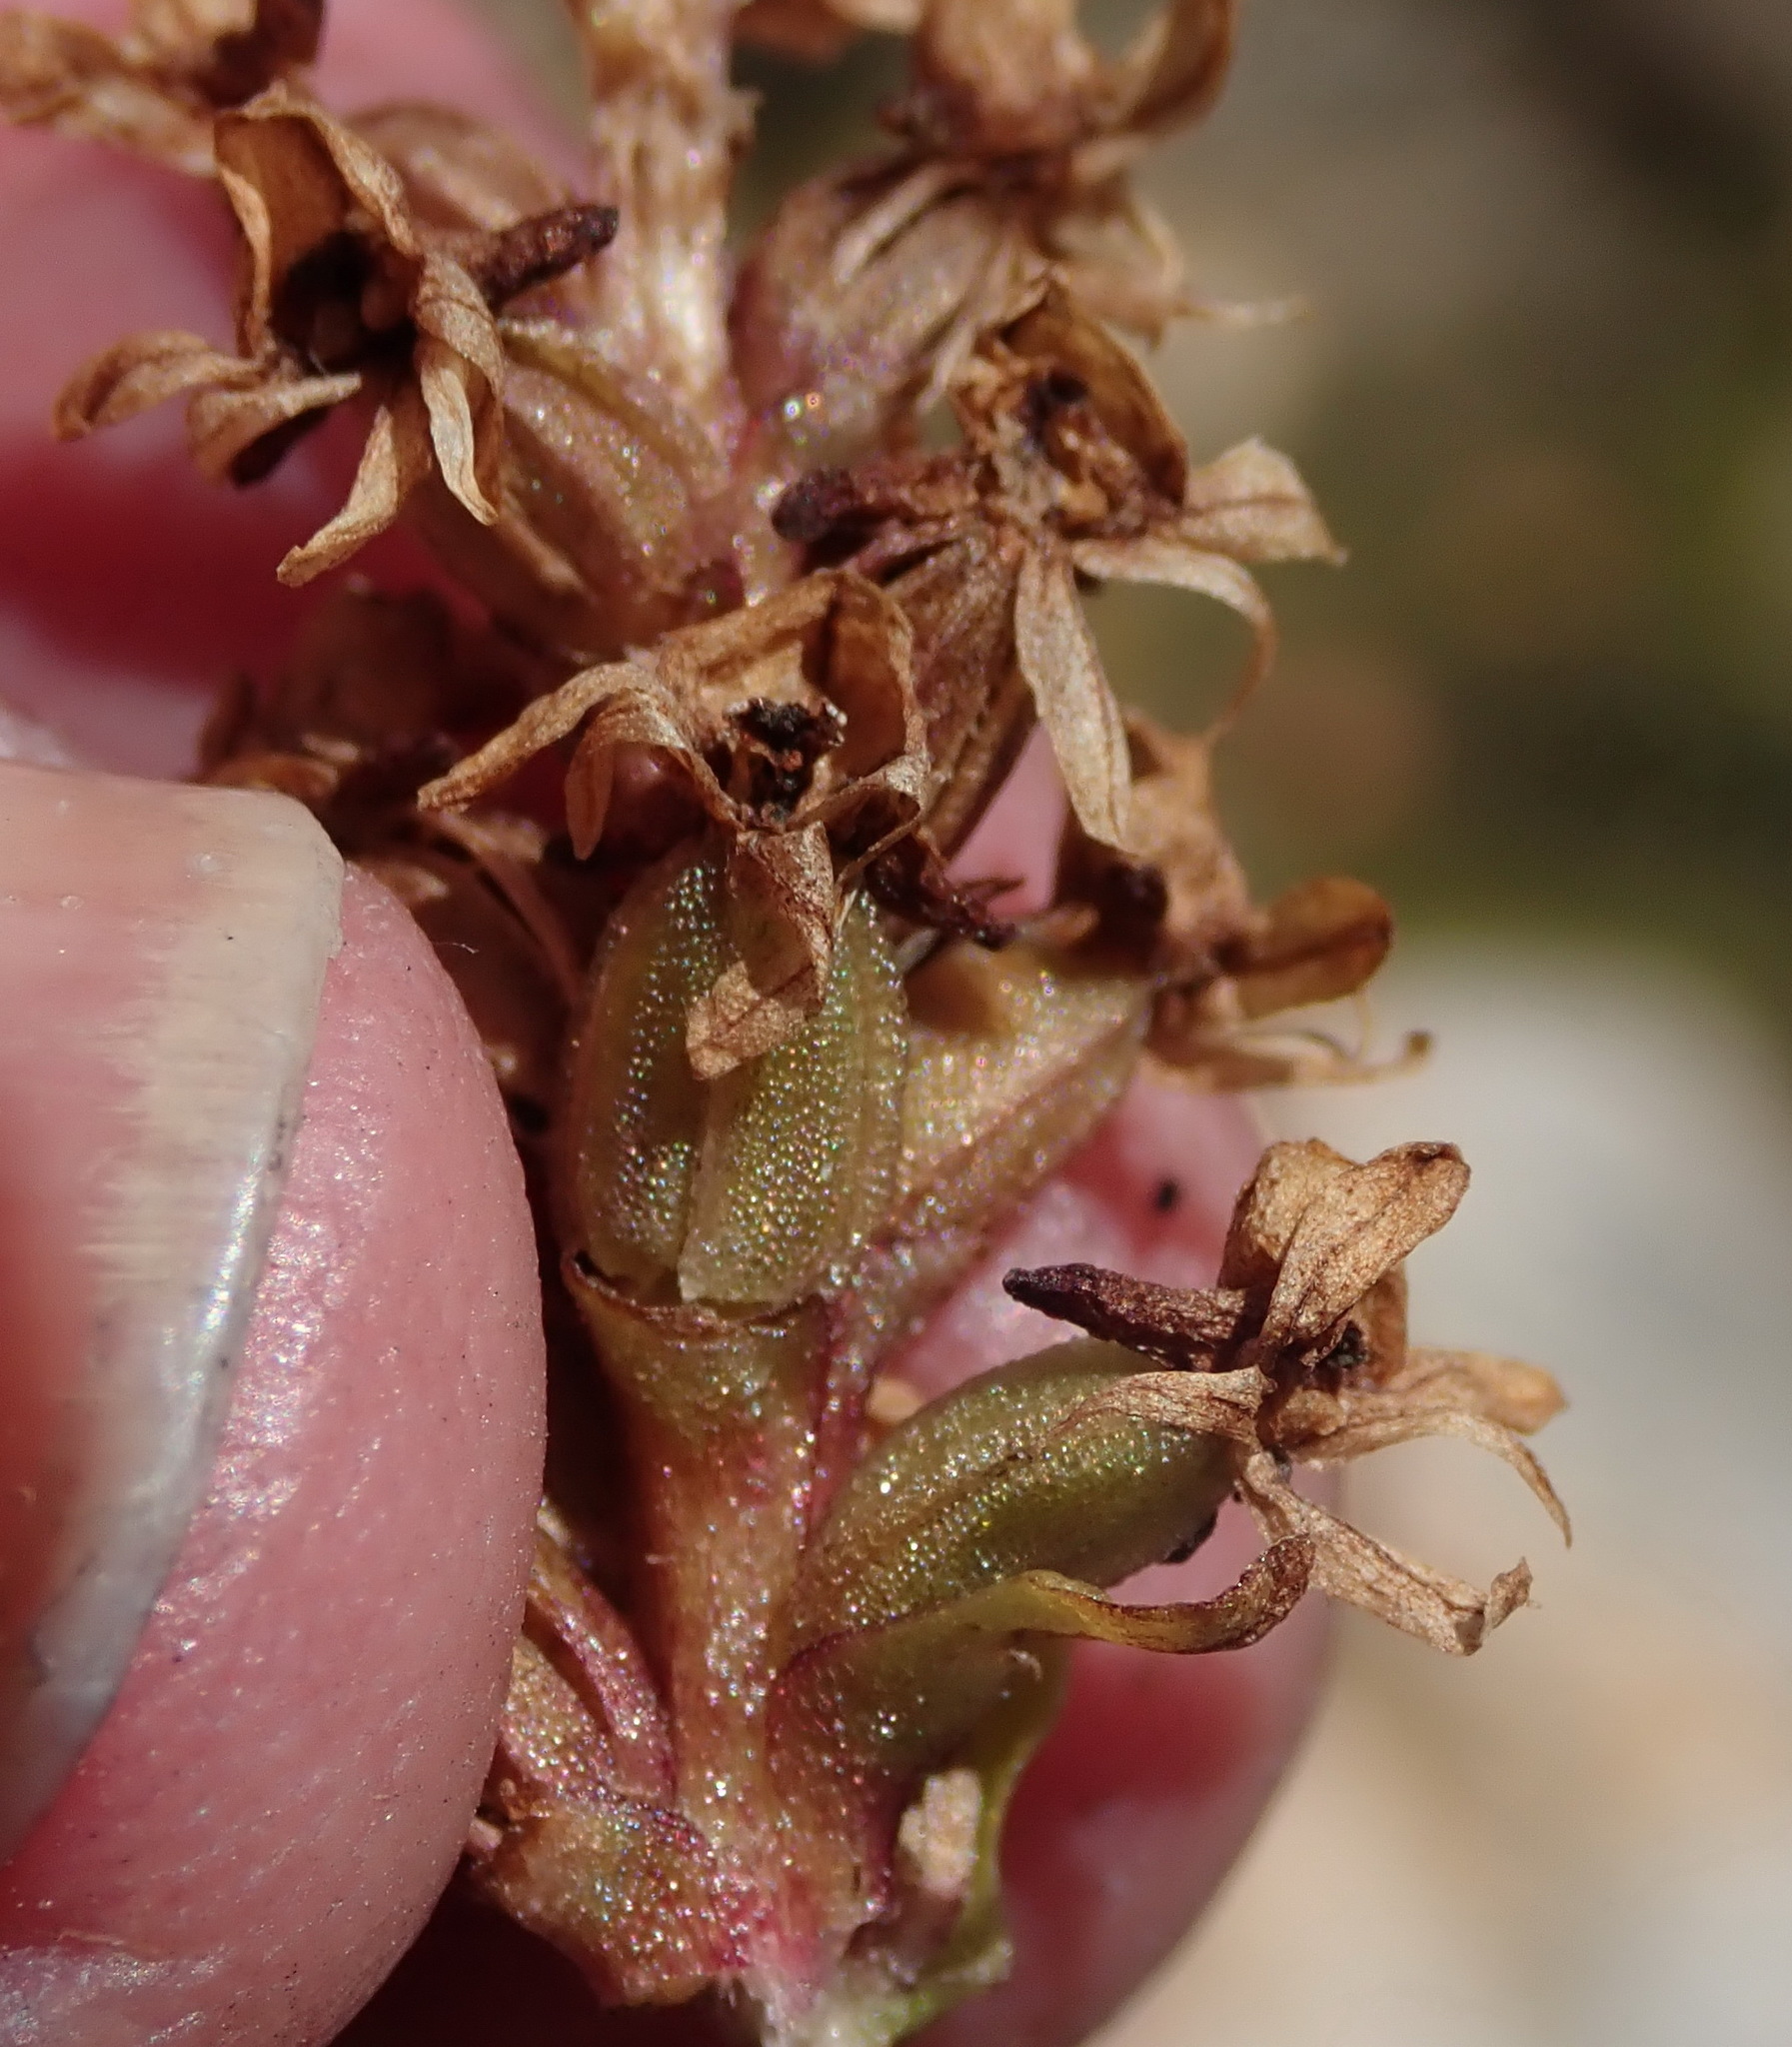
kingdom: Plantae
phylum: Tracheophyta
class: Liliopsida
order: Asparagales
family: Orchidaceae
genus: Satyrium
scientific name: Satyrium retusum
